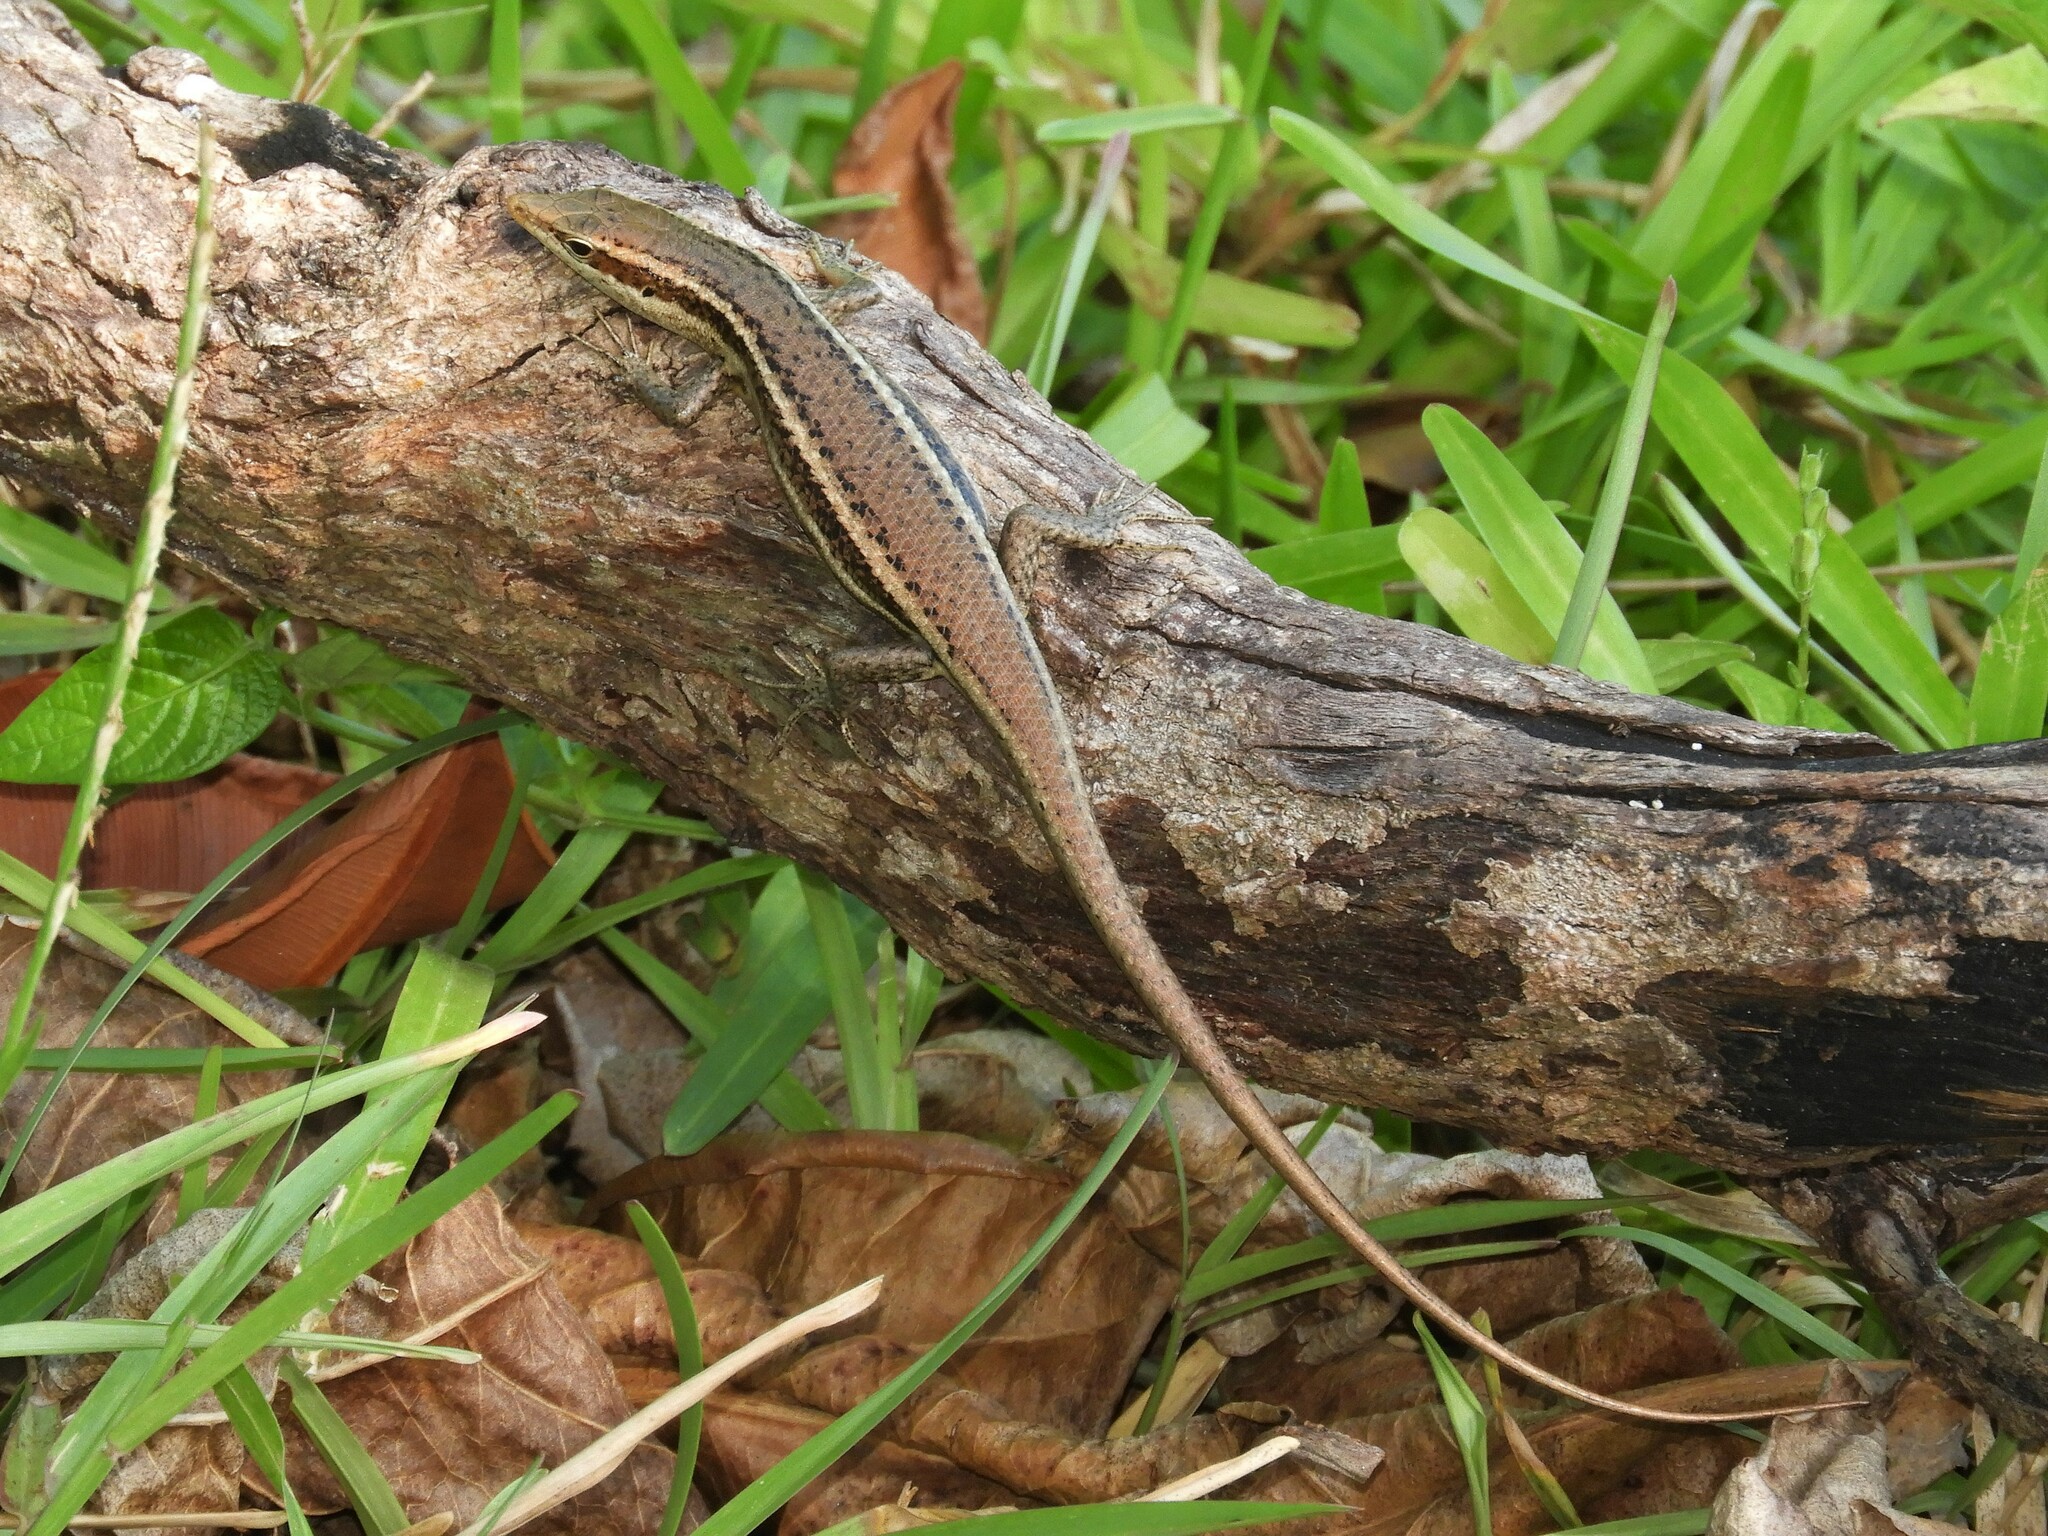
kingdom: Animalia
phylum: Chordata
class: Squamata
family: Scincidae
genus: Trachylepis
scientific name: Trachylepis sechellensis
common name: Seychelles skink
